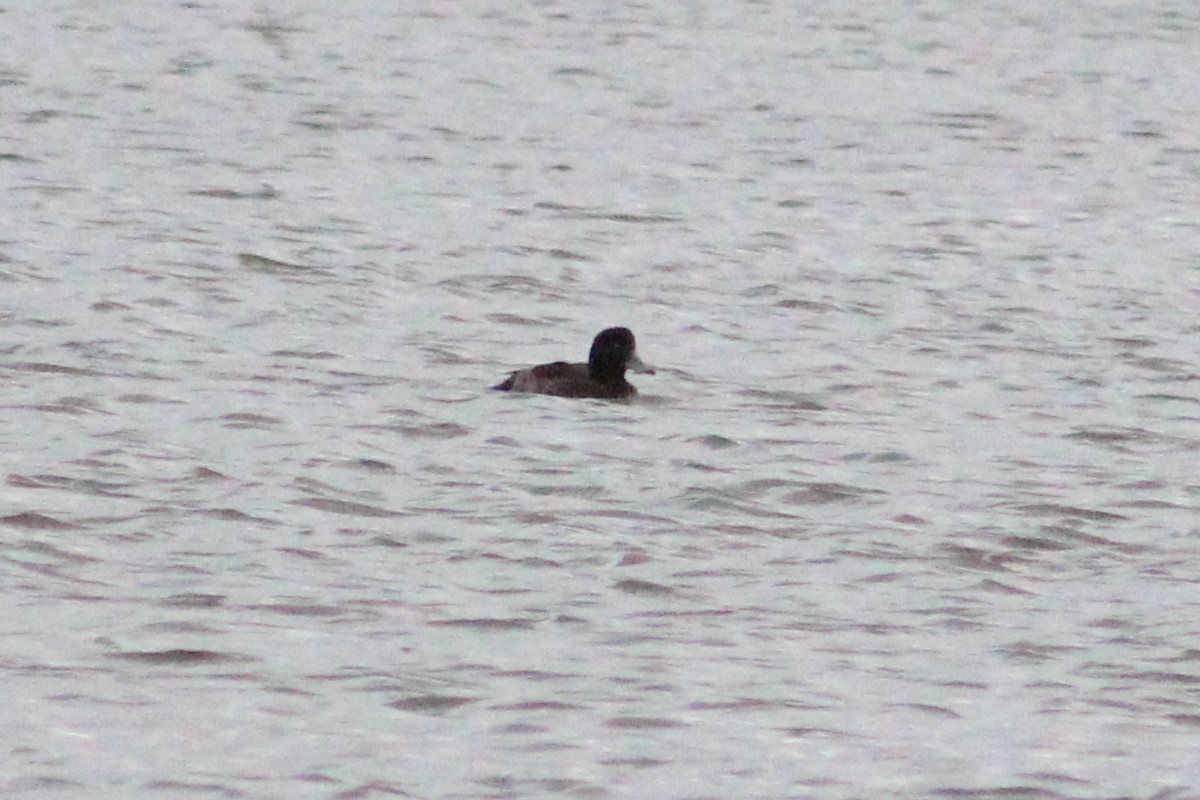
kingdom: Animalia
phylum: Chordata
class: Aves
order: Anseriformes
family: Anatidae
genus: Aythya
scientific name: Aythya fuligula
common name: Tufted duck
